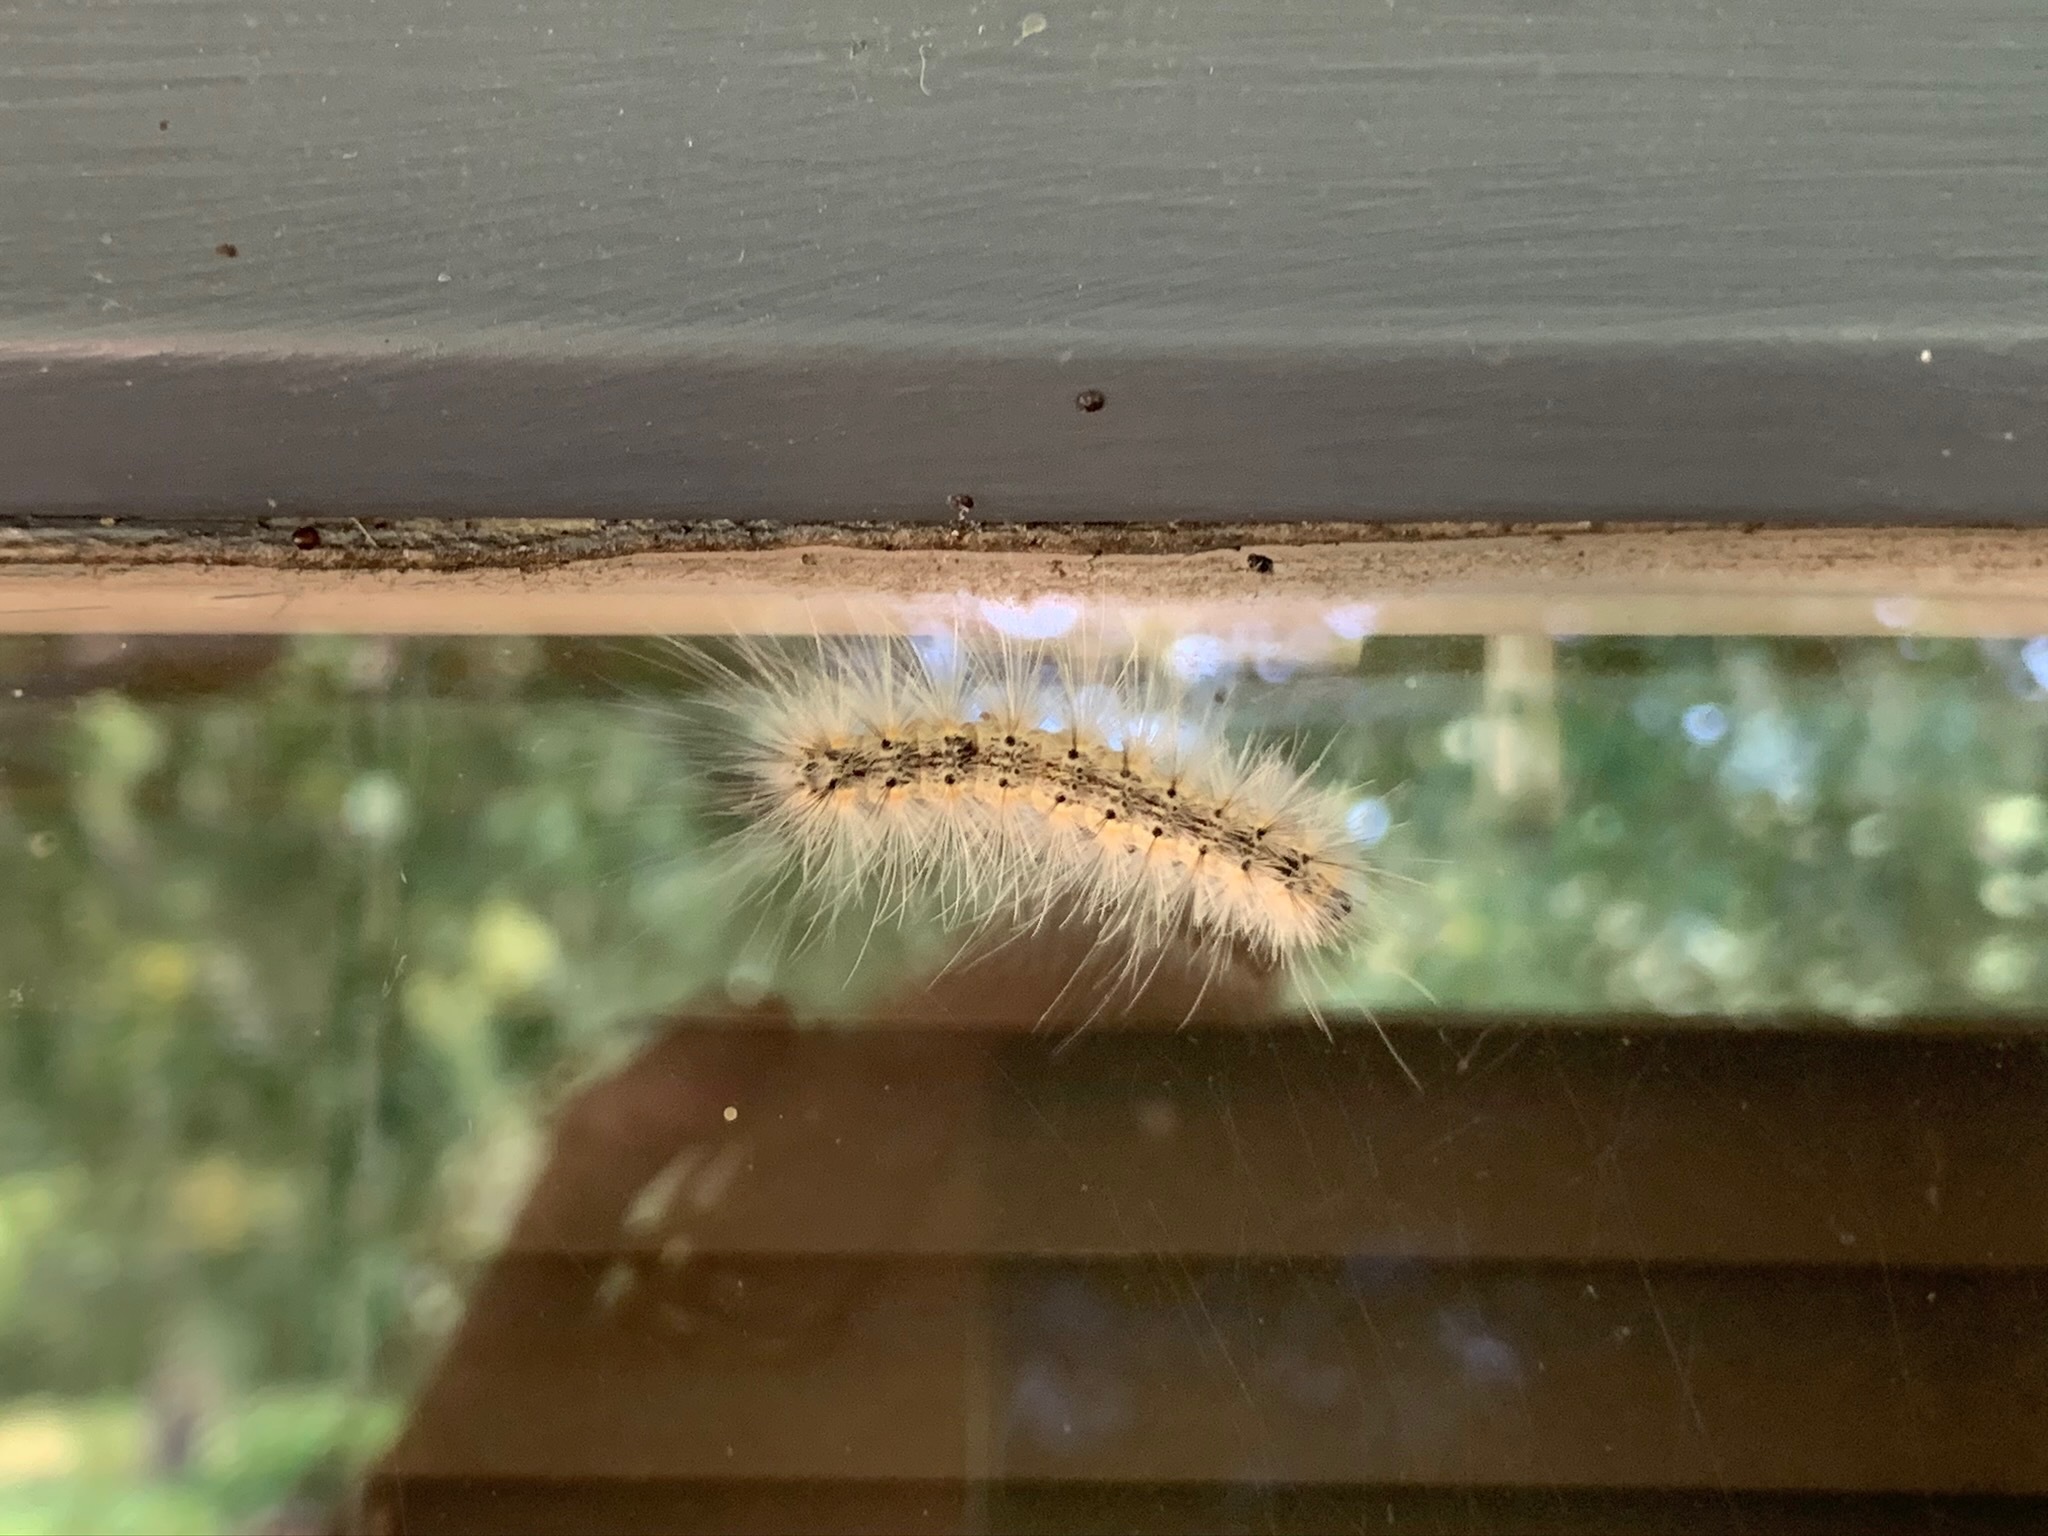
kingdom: Animalia
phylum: Arthropoda
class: Insecta
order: Lepidoptera
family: Erebidae
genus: Hyphantria
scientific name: Hyphantria cunea
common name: American white moth
